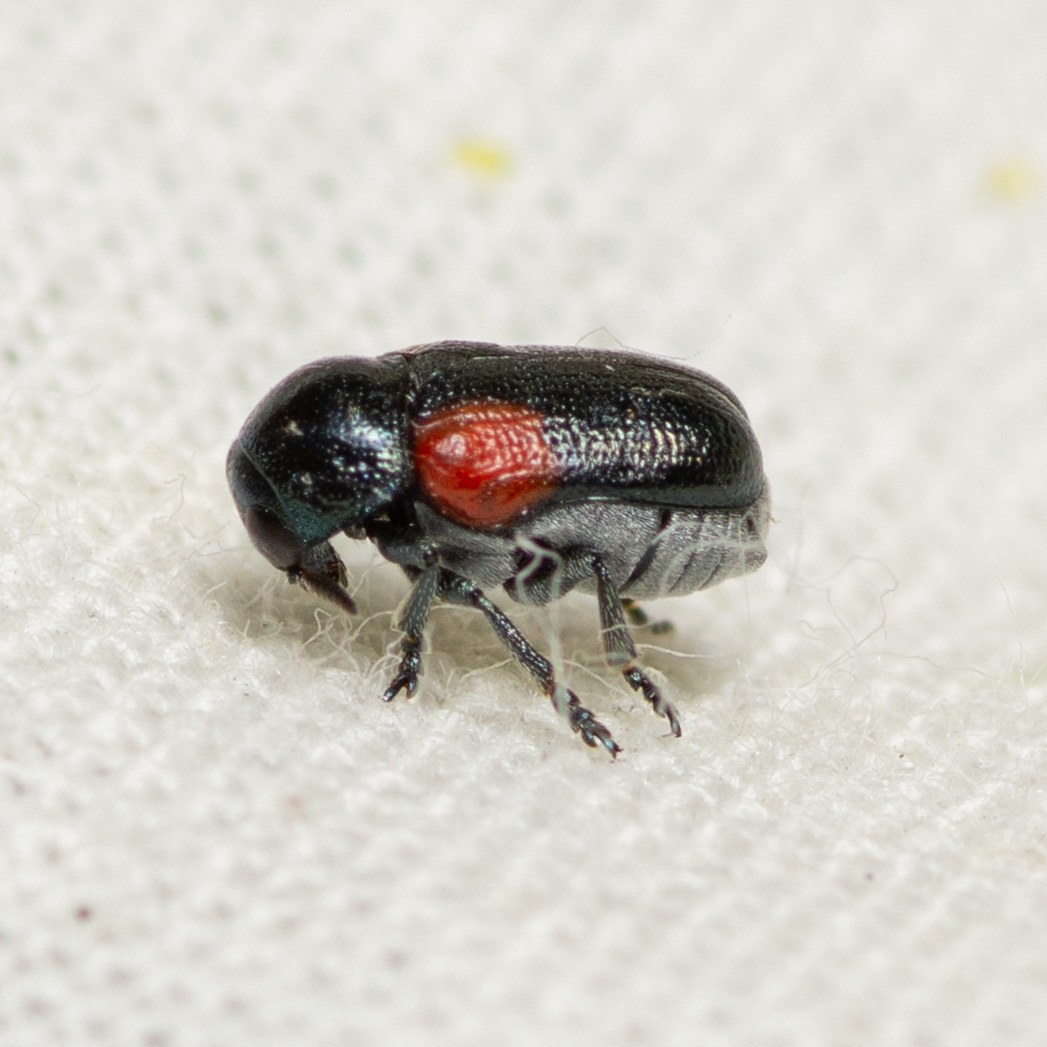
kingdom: Animalia
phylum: Arthropoda
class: Insecta
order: Coleoptera
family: Chrysomelidae
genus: Saxinis
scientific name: Saxinis sinuata
